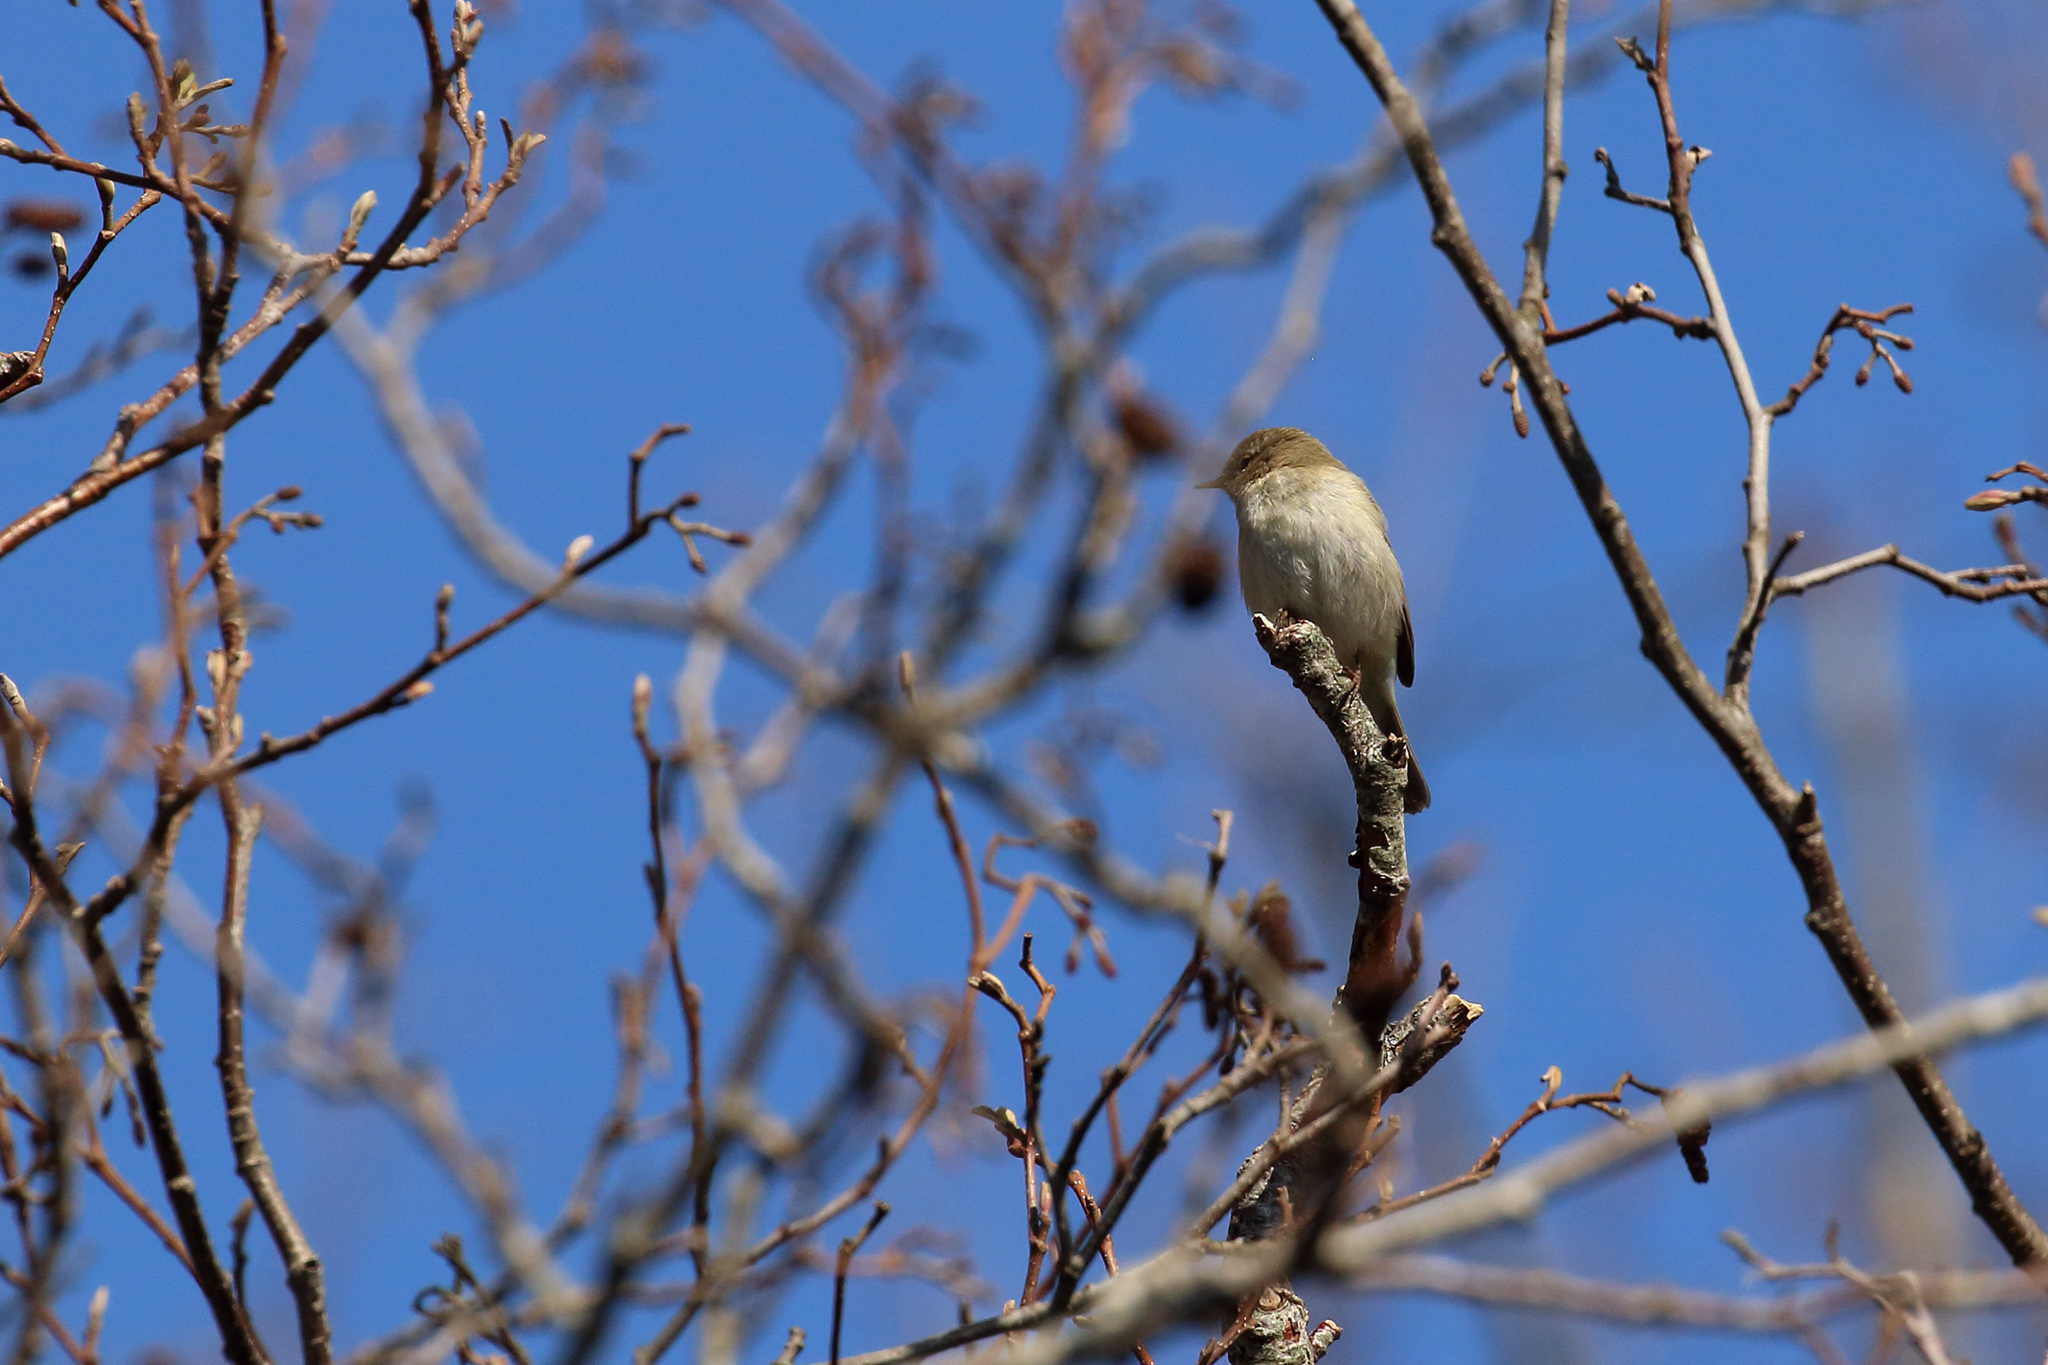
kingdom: Animalia
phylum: Chordata
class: Aves
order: Passeriformes
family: Phylloscopidae
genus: Phylloscopus
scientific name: Phylloscopus collybita
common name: Common chiffchaff
